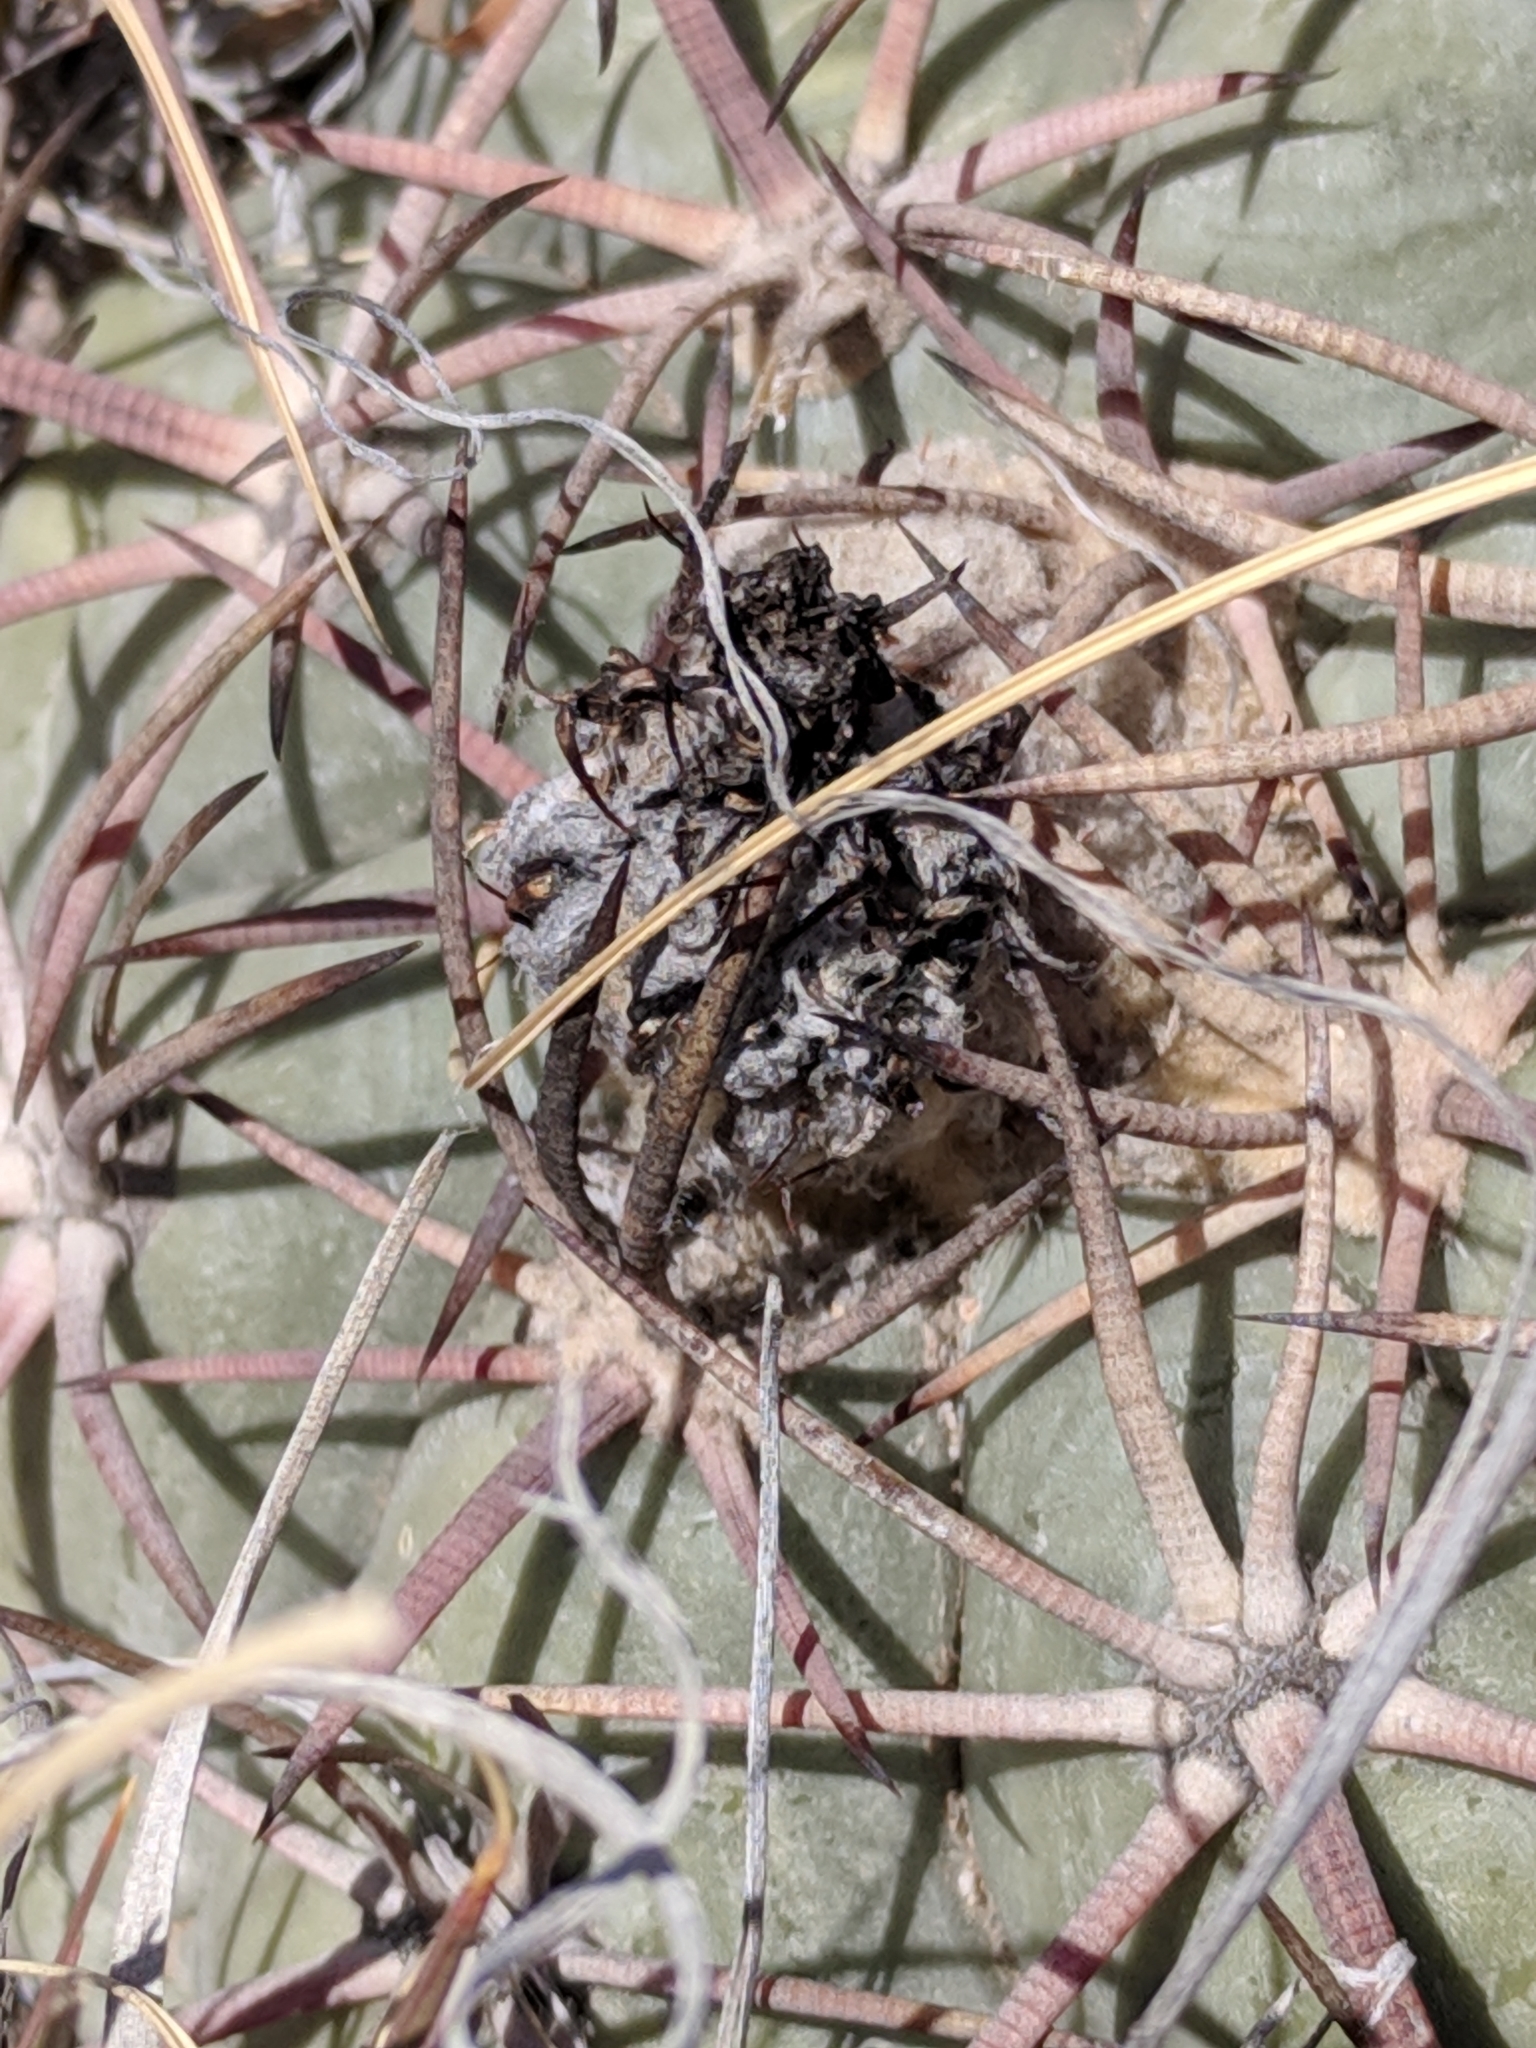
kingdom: Plantae
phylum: Tracheophyta
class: Magnoliopsida
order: Caryophyllales
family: Cactaceae
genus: Echinocactus
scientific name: Echinocactus horizonthalonius
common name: Devilshead
